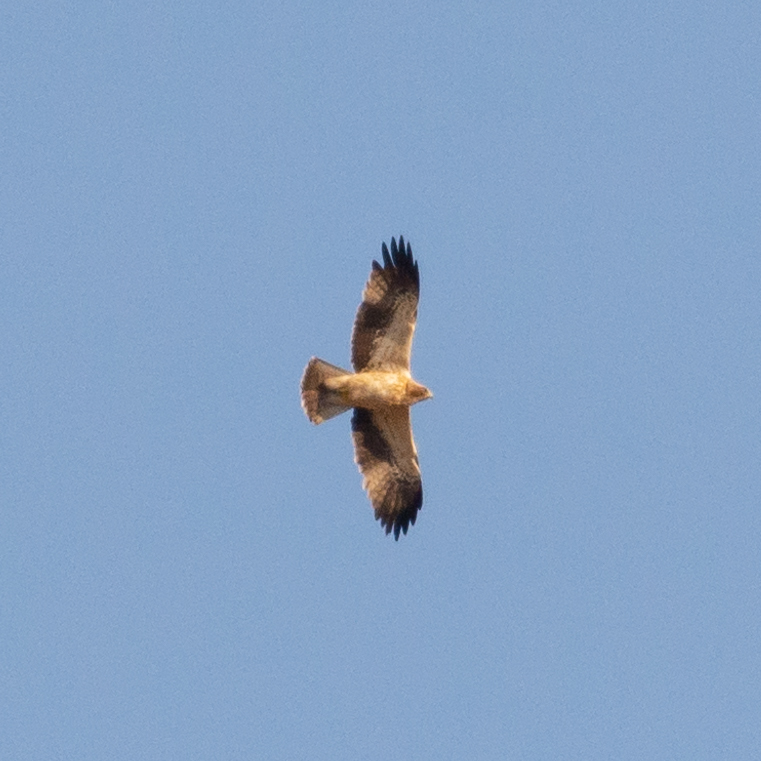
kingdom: Animalia
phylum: Chordata
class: Aves
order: Accipitriformes
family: Accipitridae
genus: Hieraaetus
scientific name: Hieraaetus pennatus
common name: Booted eagle
